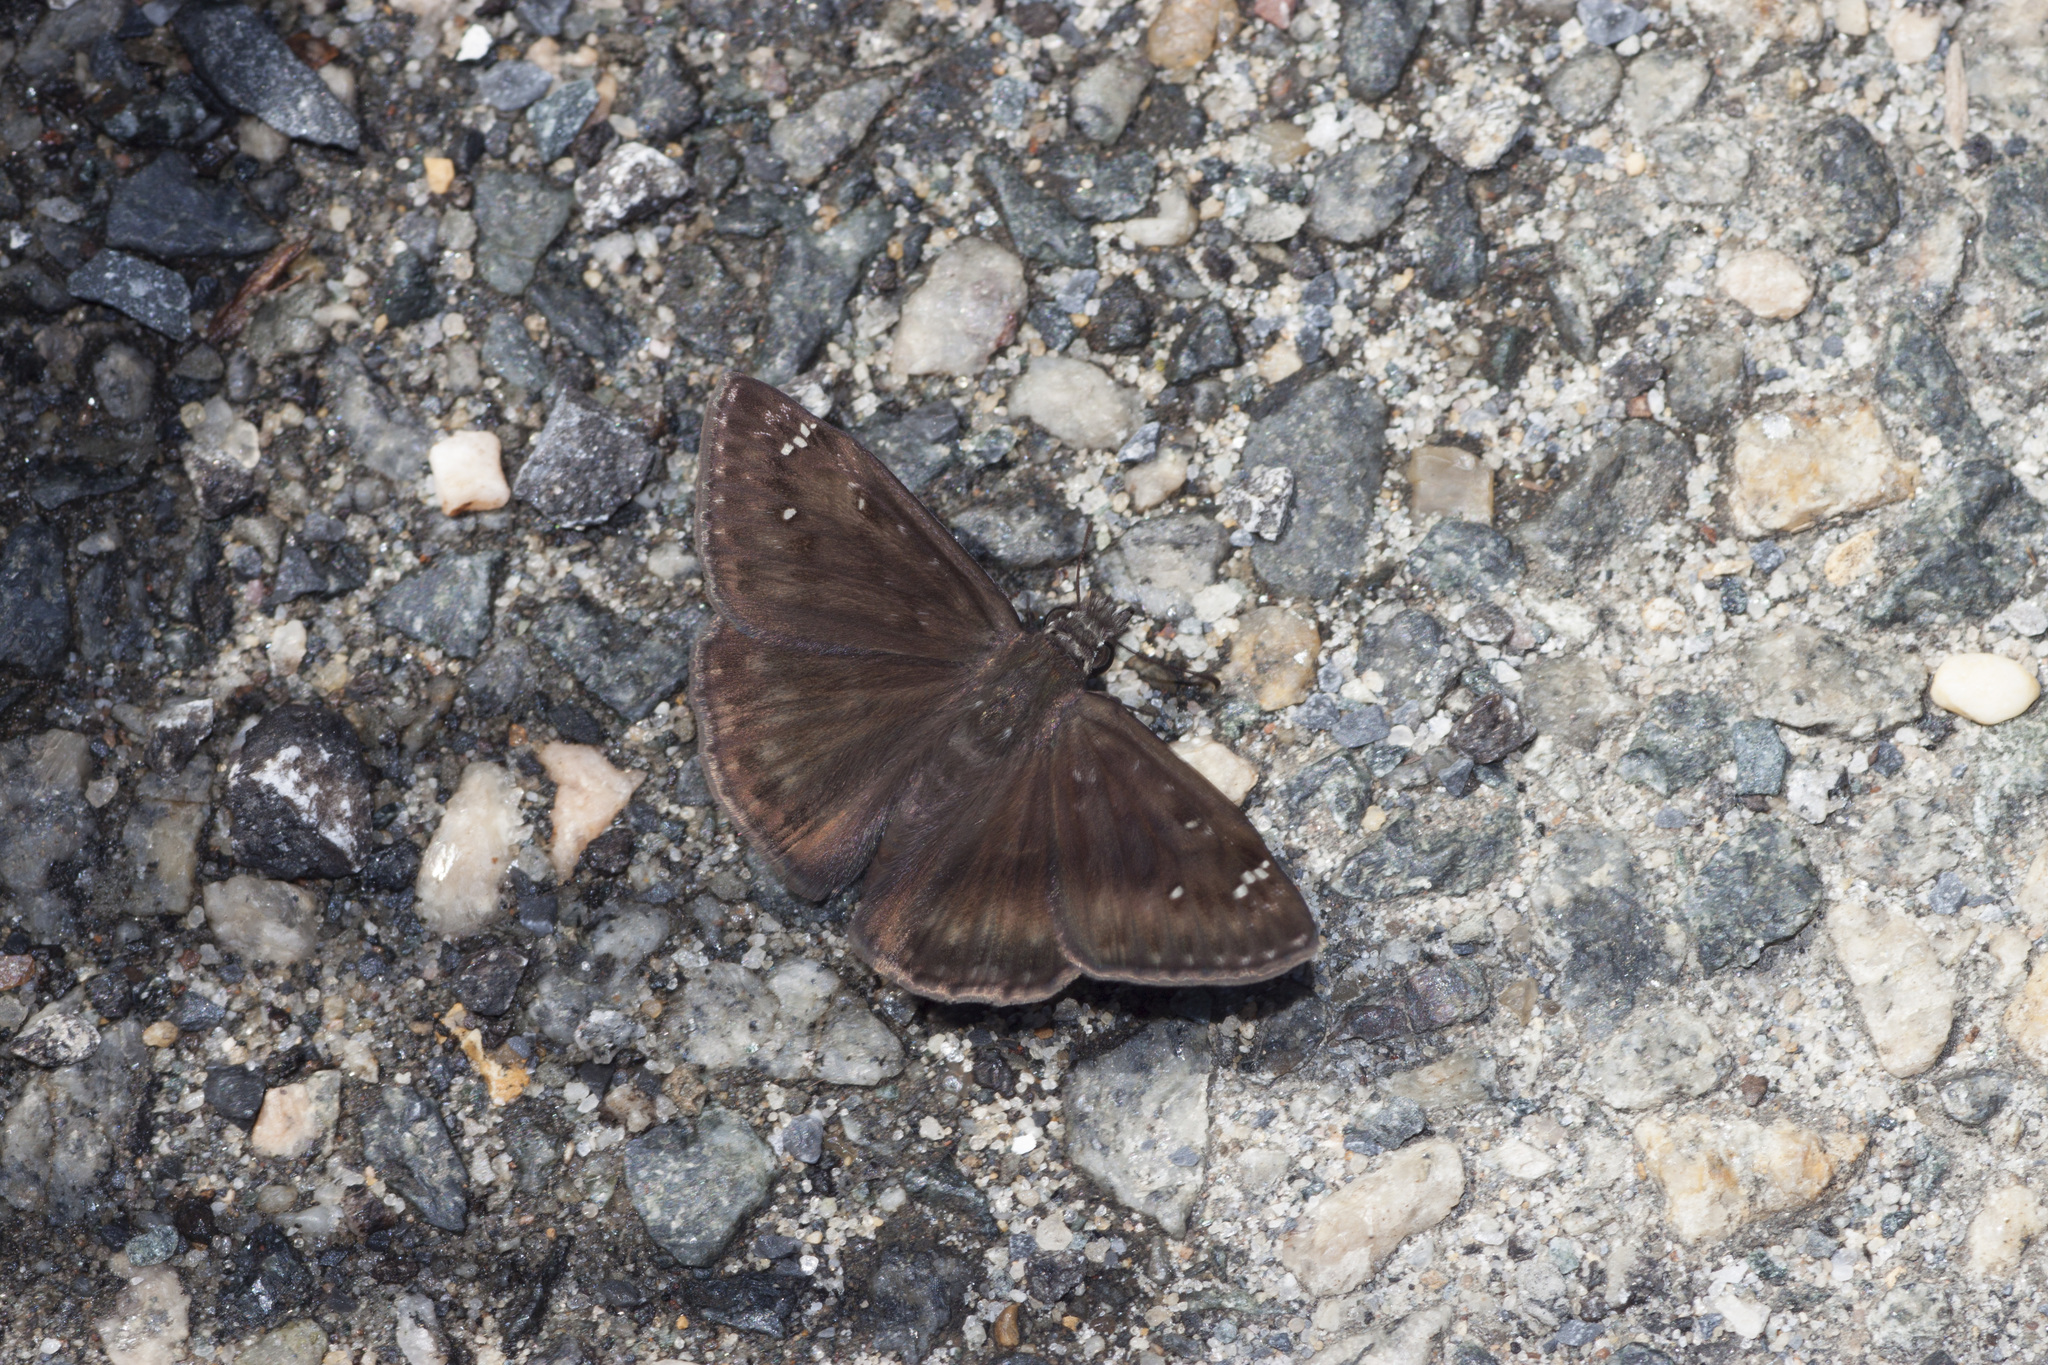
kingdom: Animalia
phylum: Arthropoda
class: Insecta
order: Lepidoptera
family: Hesperiidae
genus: Erynnis
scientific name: Erynnis horatius
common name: Horace's duskywing
